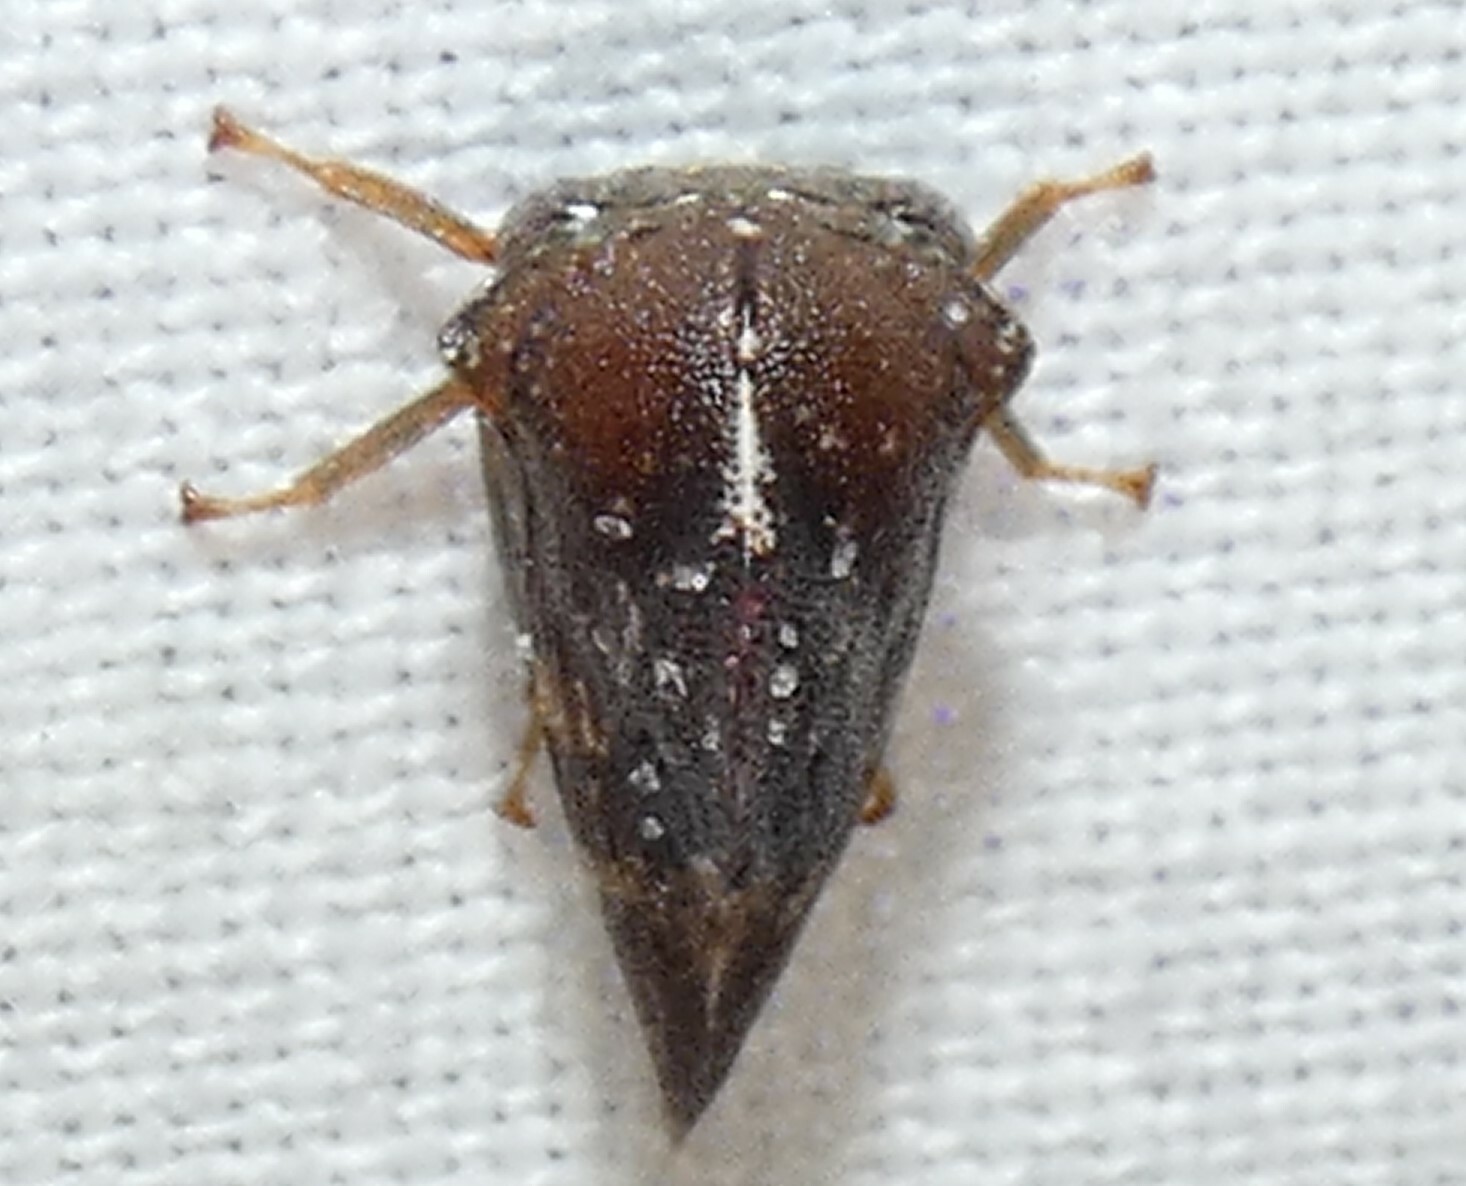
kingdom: Animalia
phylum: Arthropoda
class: Insecta
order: Hemiptera
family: Membracidae
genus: Telamona
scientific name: Telamona woodruffi
